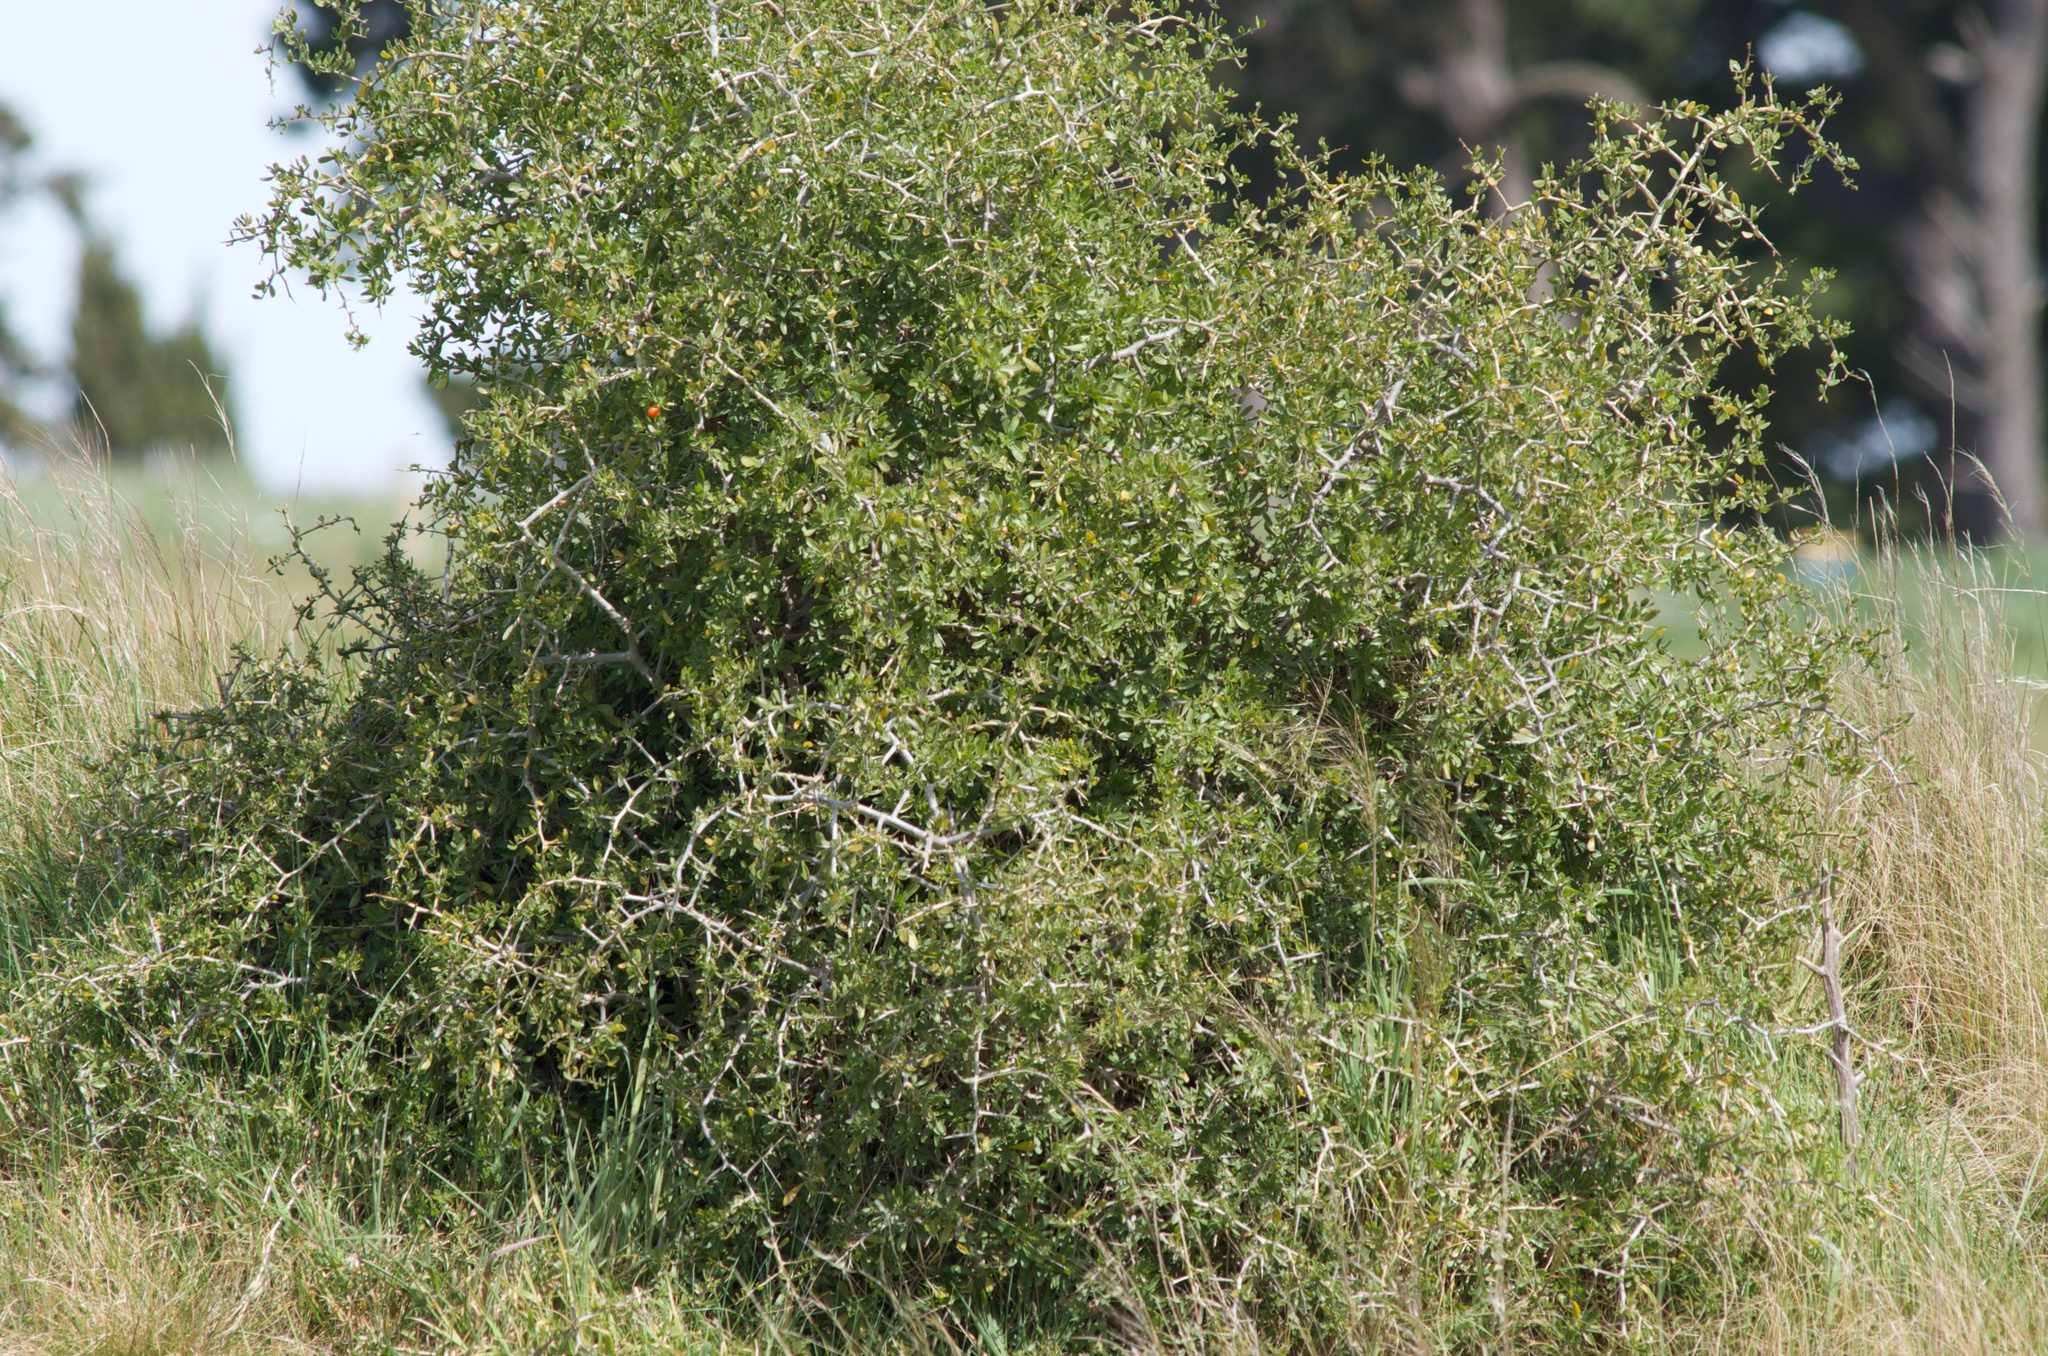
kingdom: Plantae
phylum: Tracheophyta
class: Magnoliopsida
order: Solanales
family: Solanaceae
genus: Lycium
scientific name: Lycium ferocissimum
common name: African boxthorn
